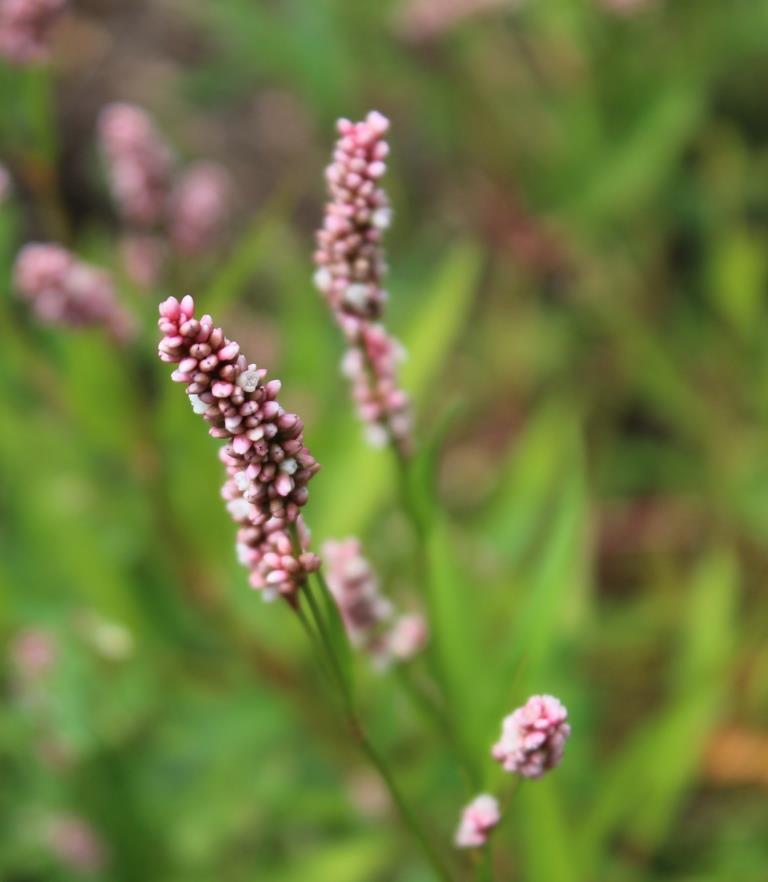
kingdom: Plantae
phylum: Tracheophyta
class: Magnoliopsida
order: Caryophyllales
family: Polygonaceae
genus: Persicaria
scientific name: Persicaria maculosa
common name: Redshank
